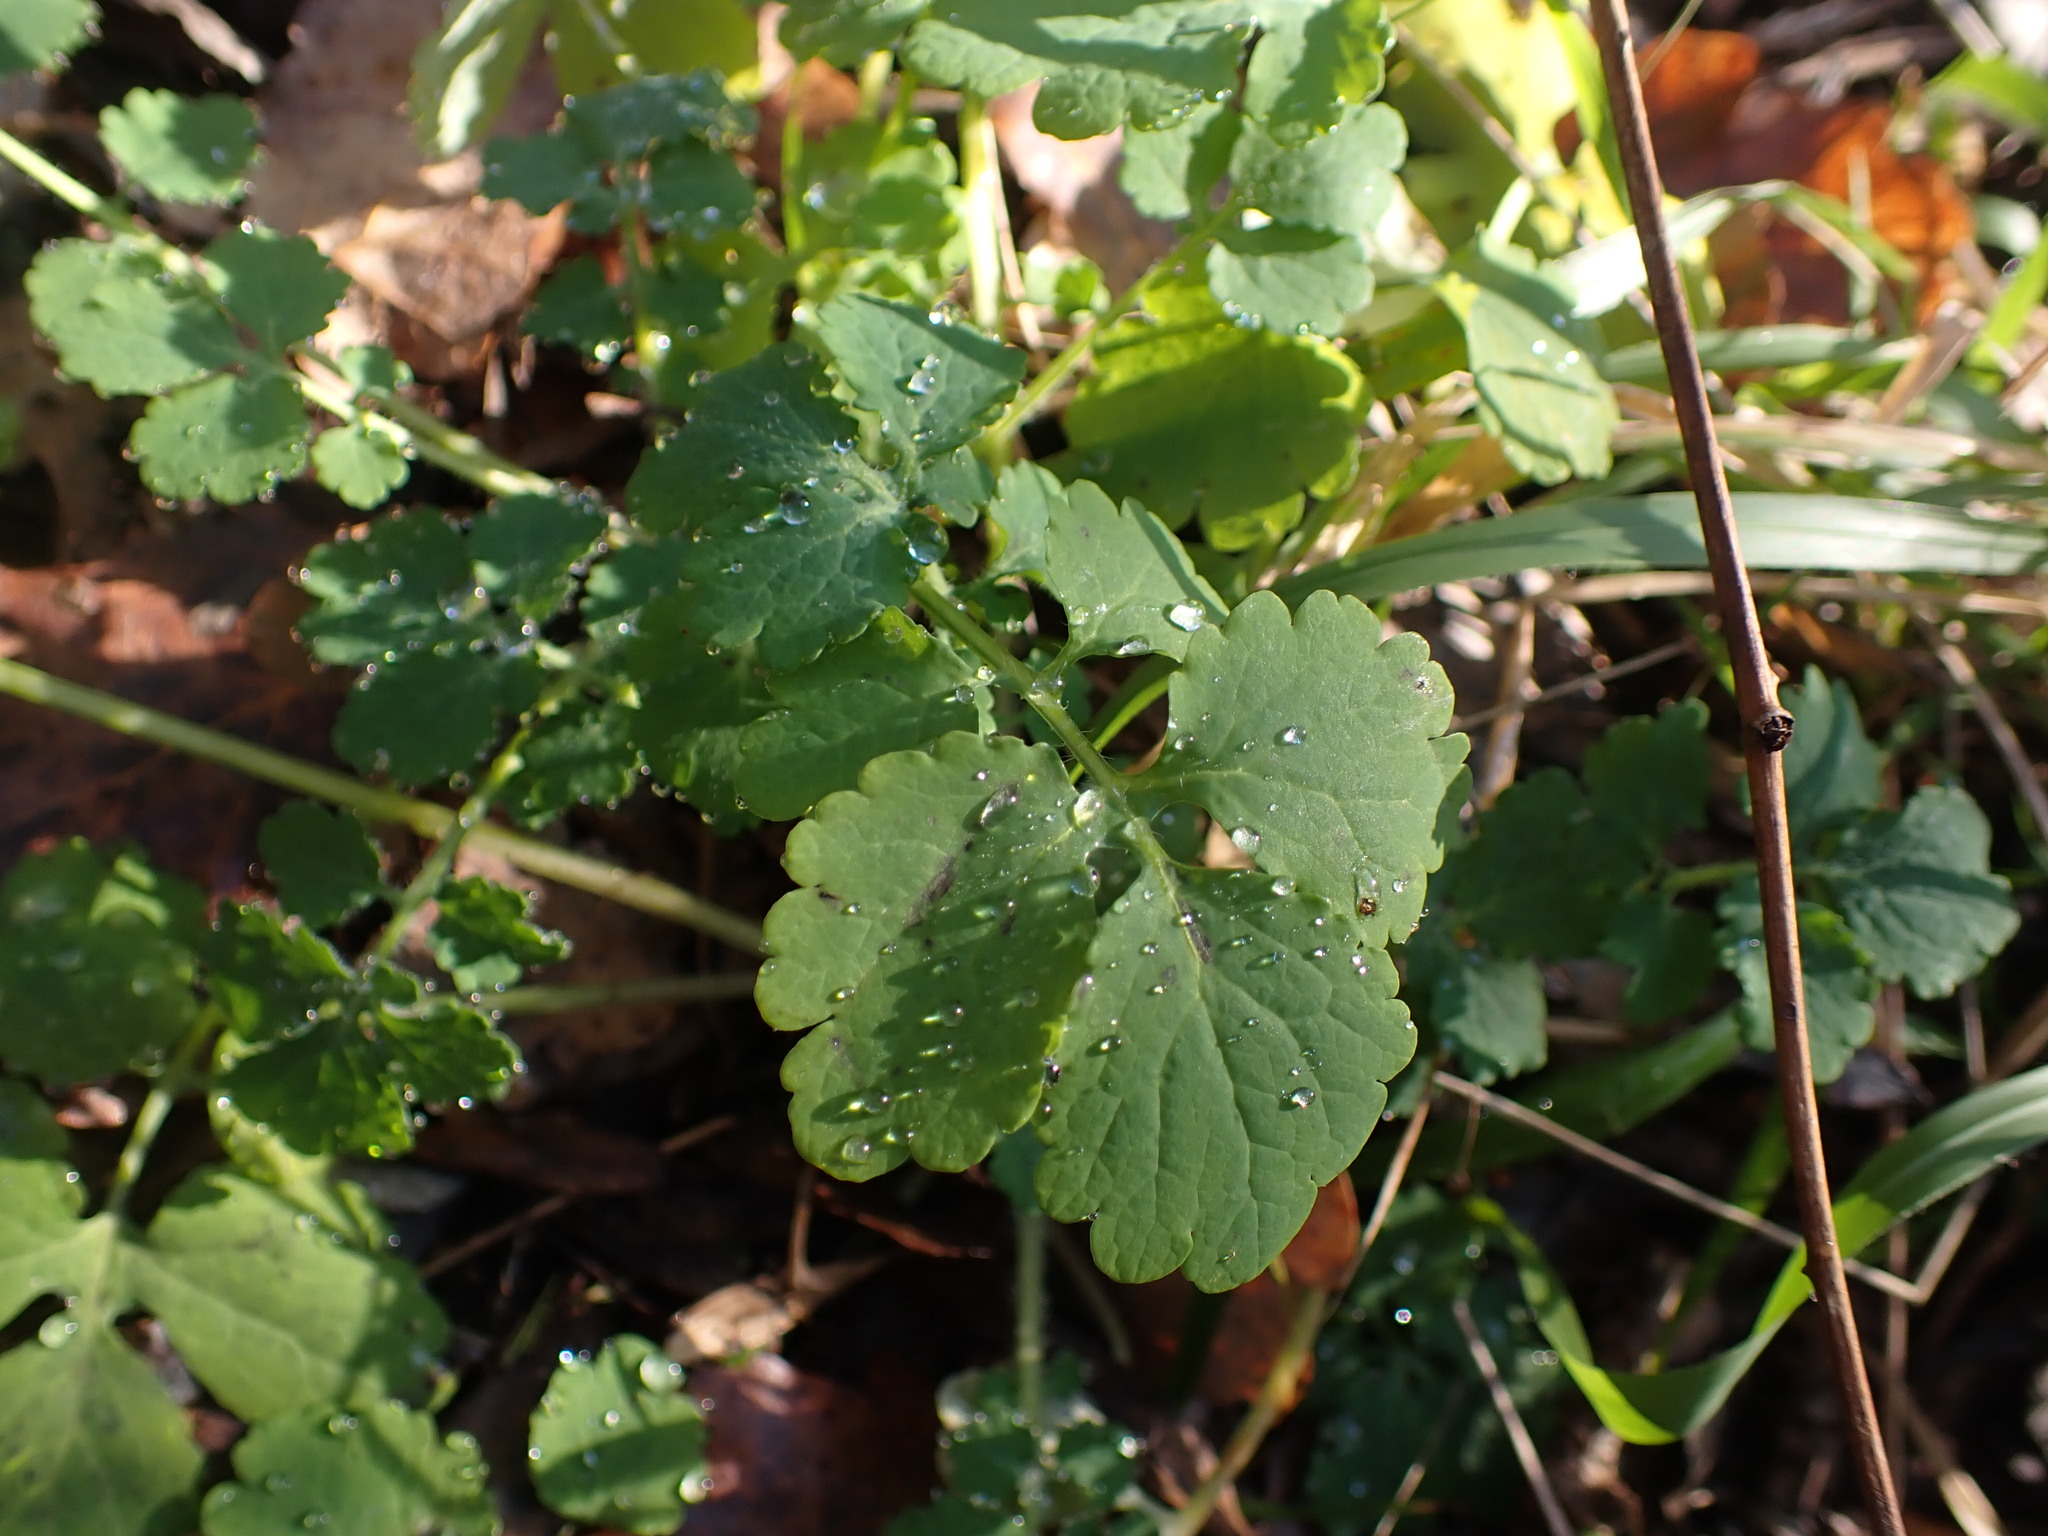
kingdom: Plantae
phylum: Tracheophyta
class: Magnoliopsida
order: Ranunculales
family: Papaveraceae
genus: Chelidonium
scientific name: Chelidonium majus
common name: Greater celandine
